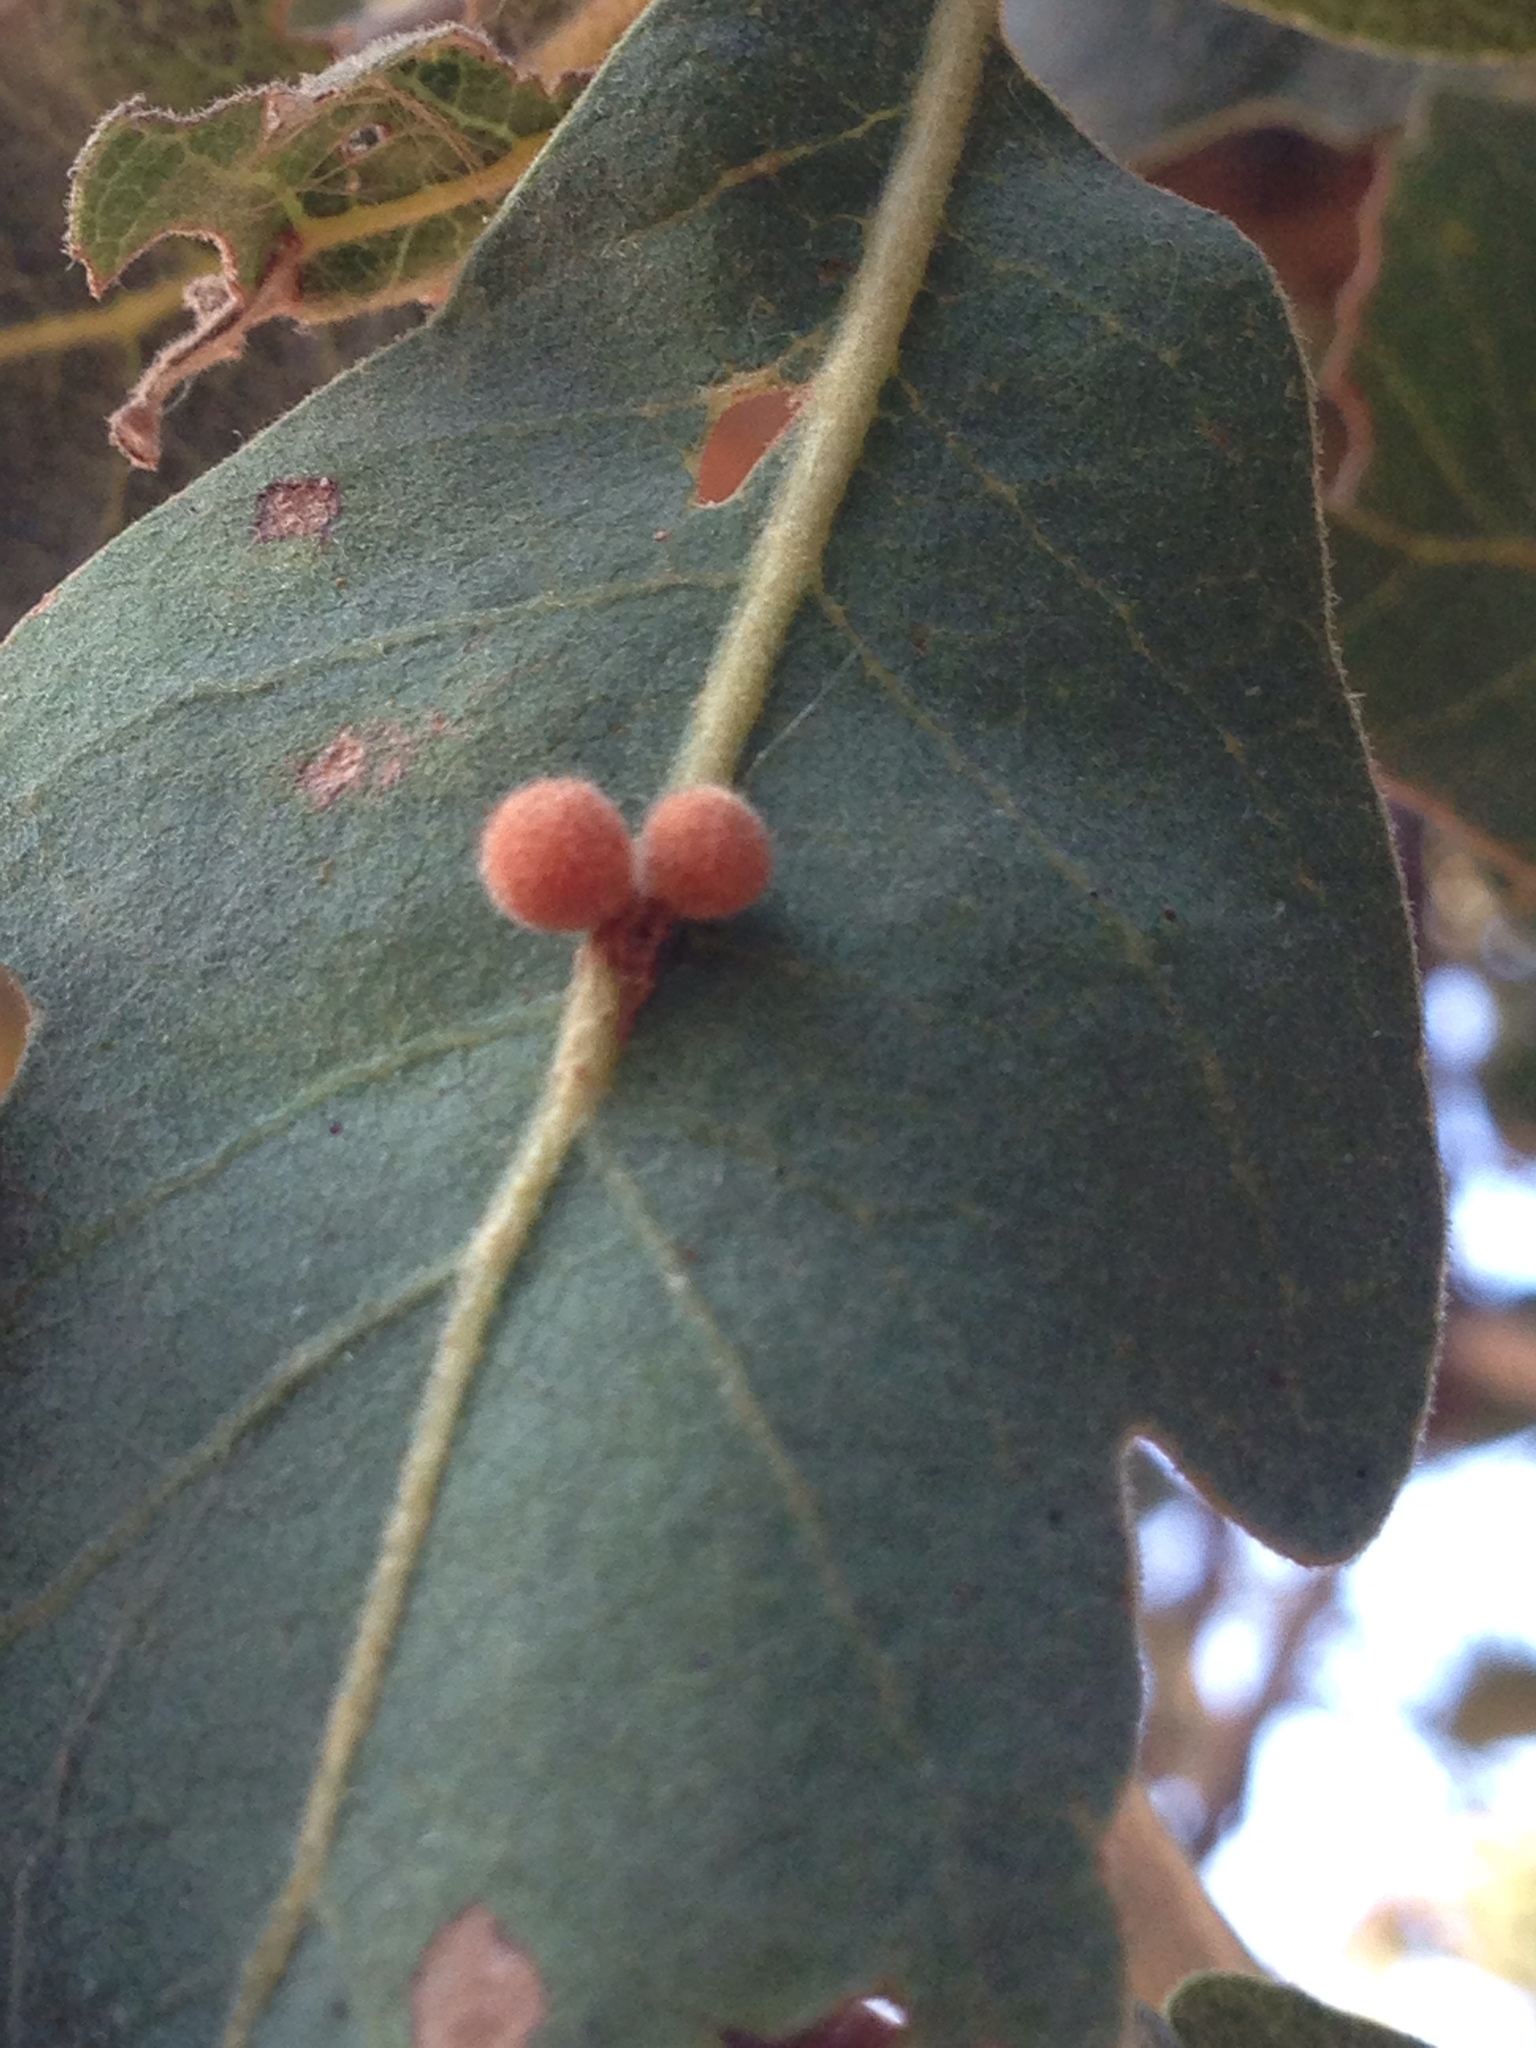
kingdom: Animalia
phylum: Arthropoda
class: Insecta
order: Hymenoptera
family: Cynipidae
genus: Andricus
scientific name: Andricus
